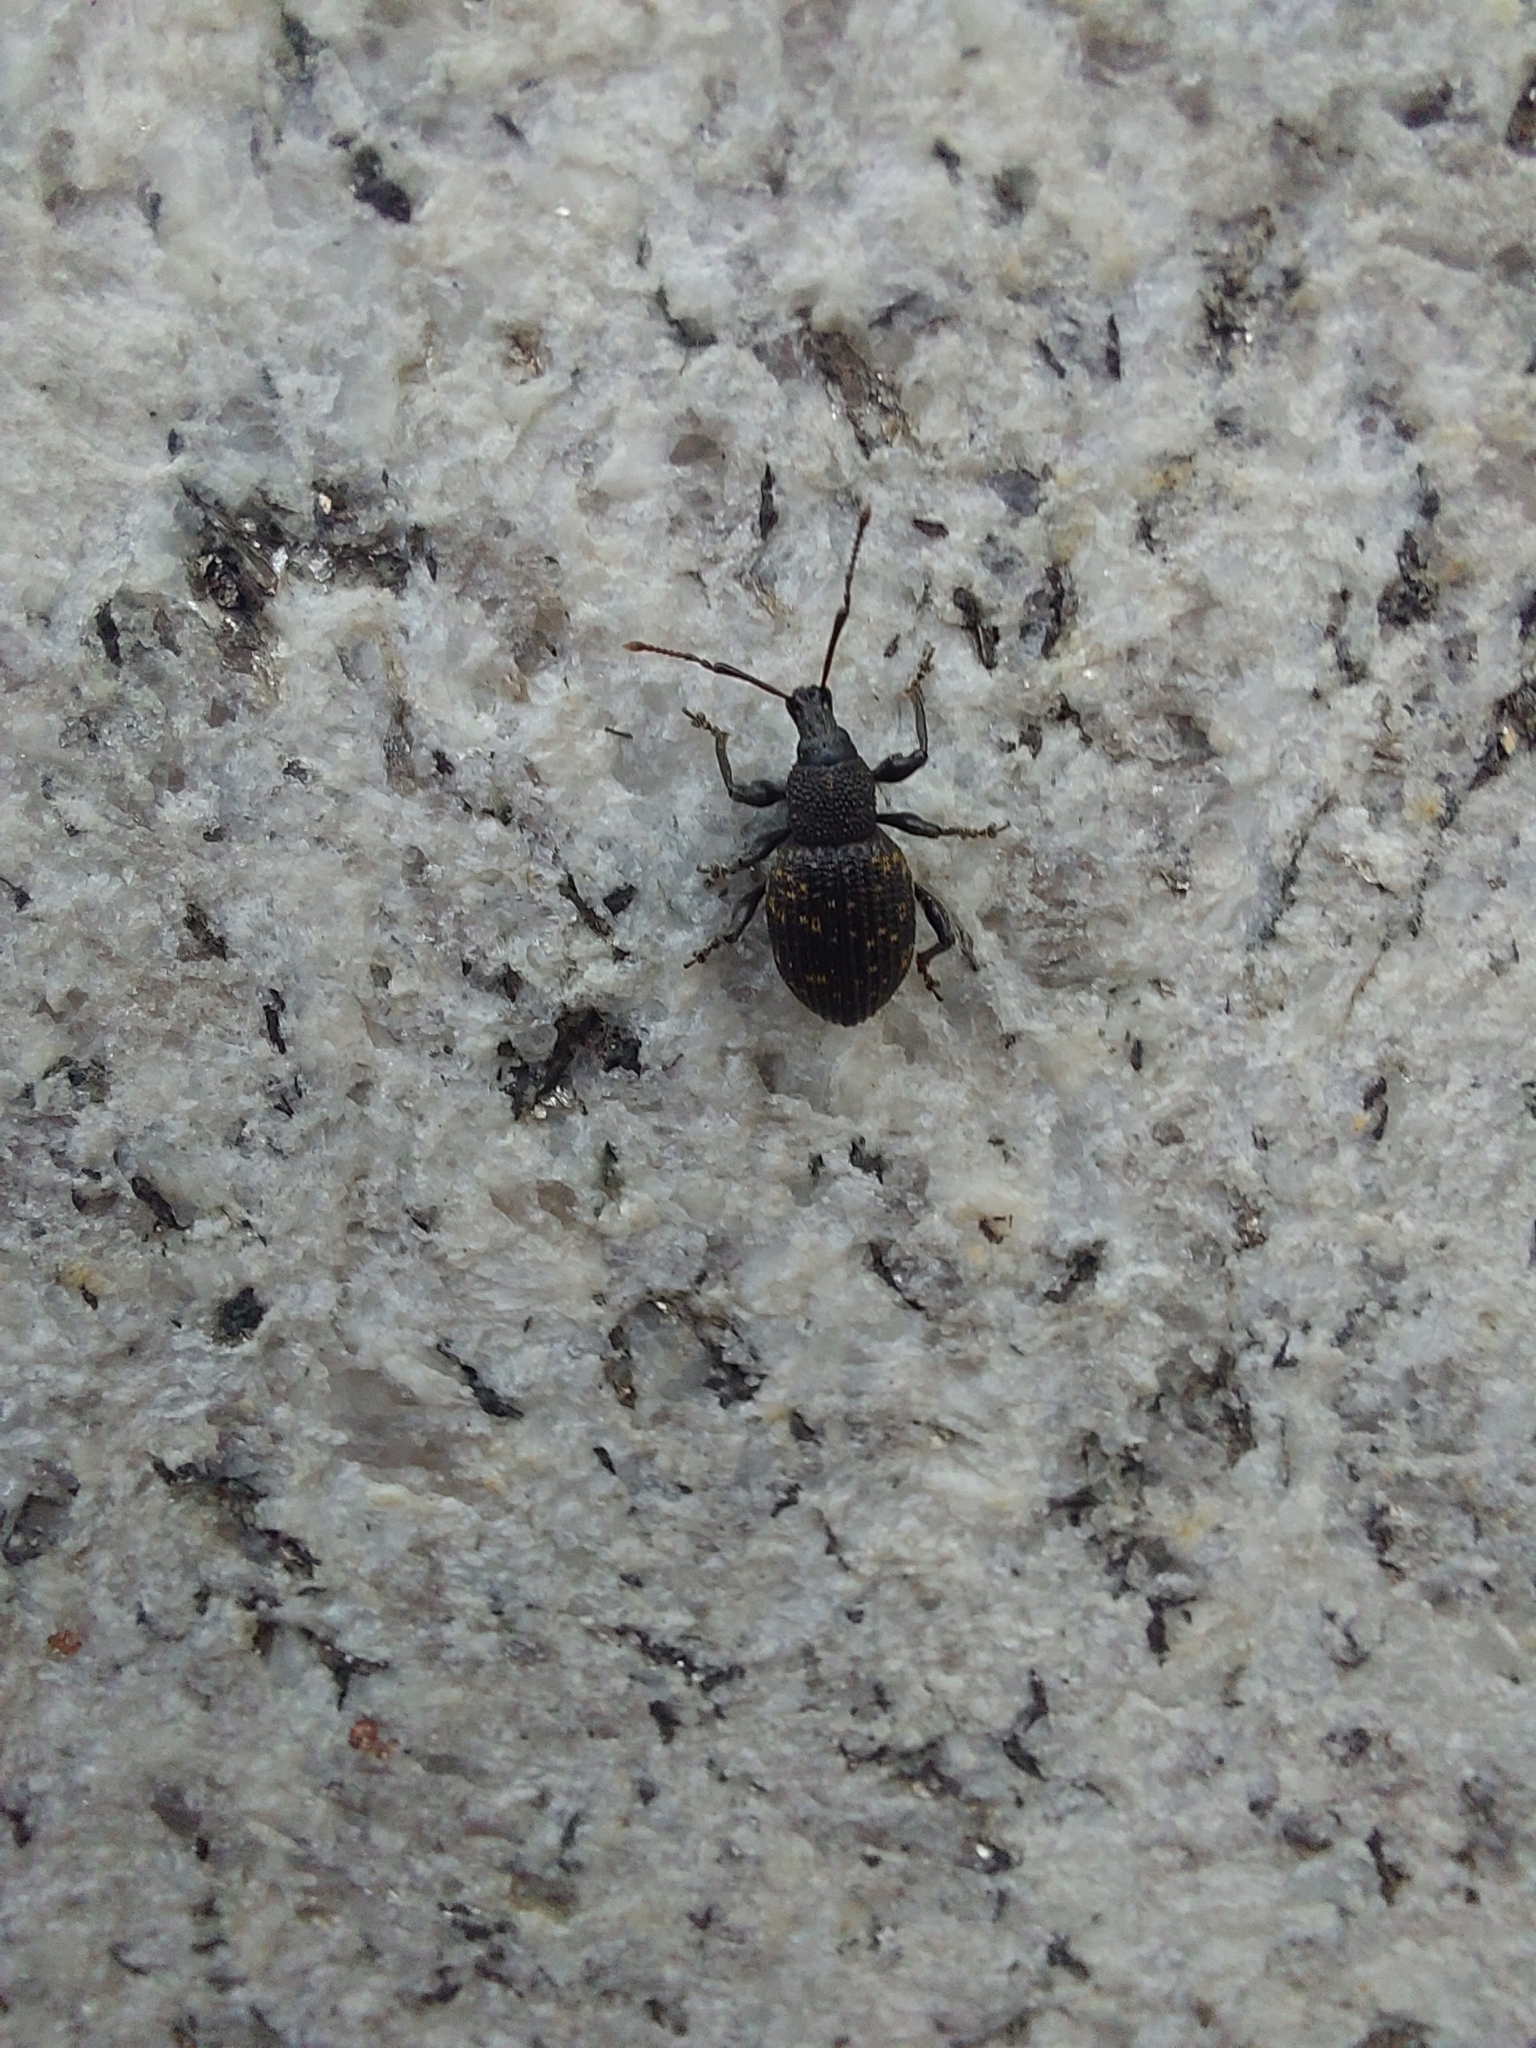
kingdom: Animalia
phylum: Arthropoda
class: Insecta
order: Coleoptera
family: Curculionidae
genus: Otiorhynchus
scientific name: Otiorhynchus sulcatus
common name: Black vine weevil
